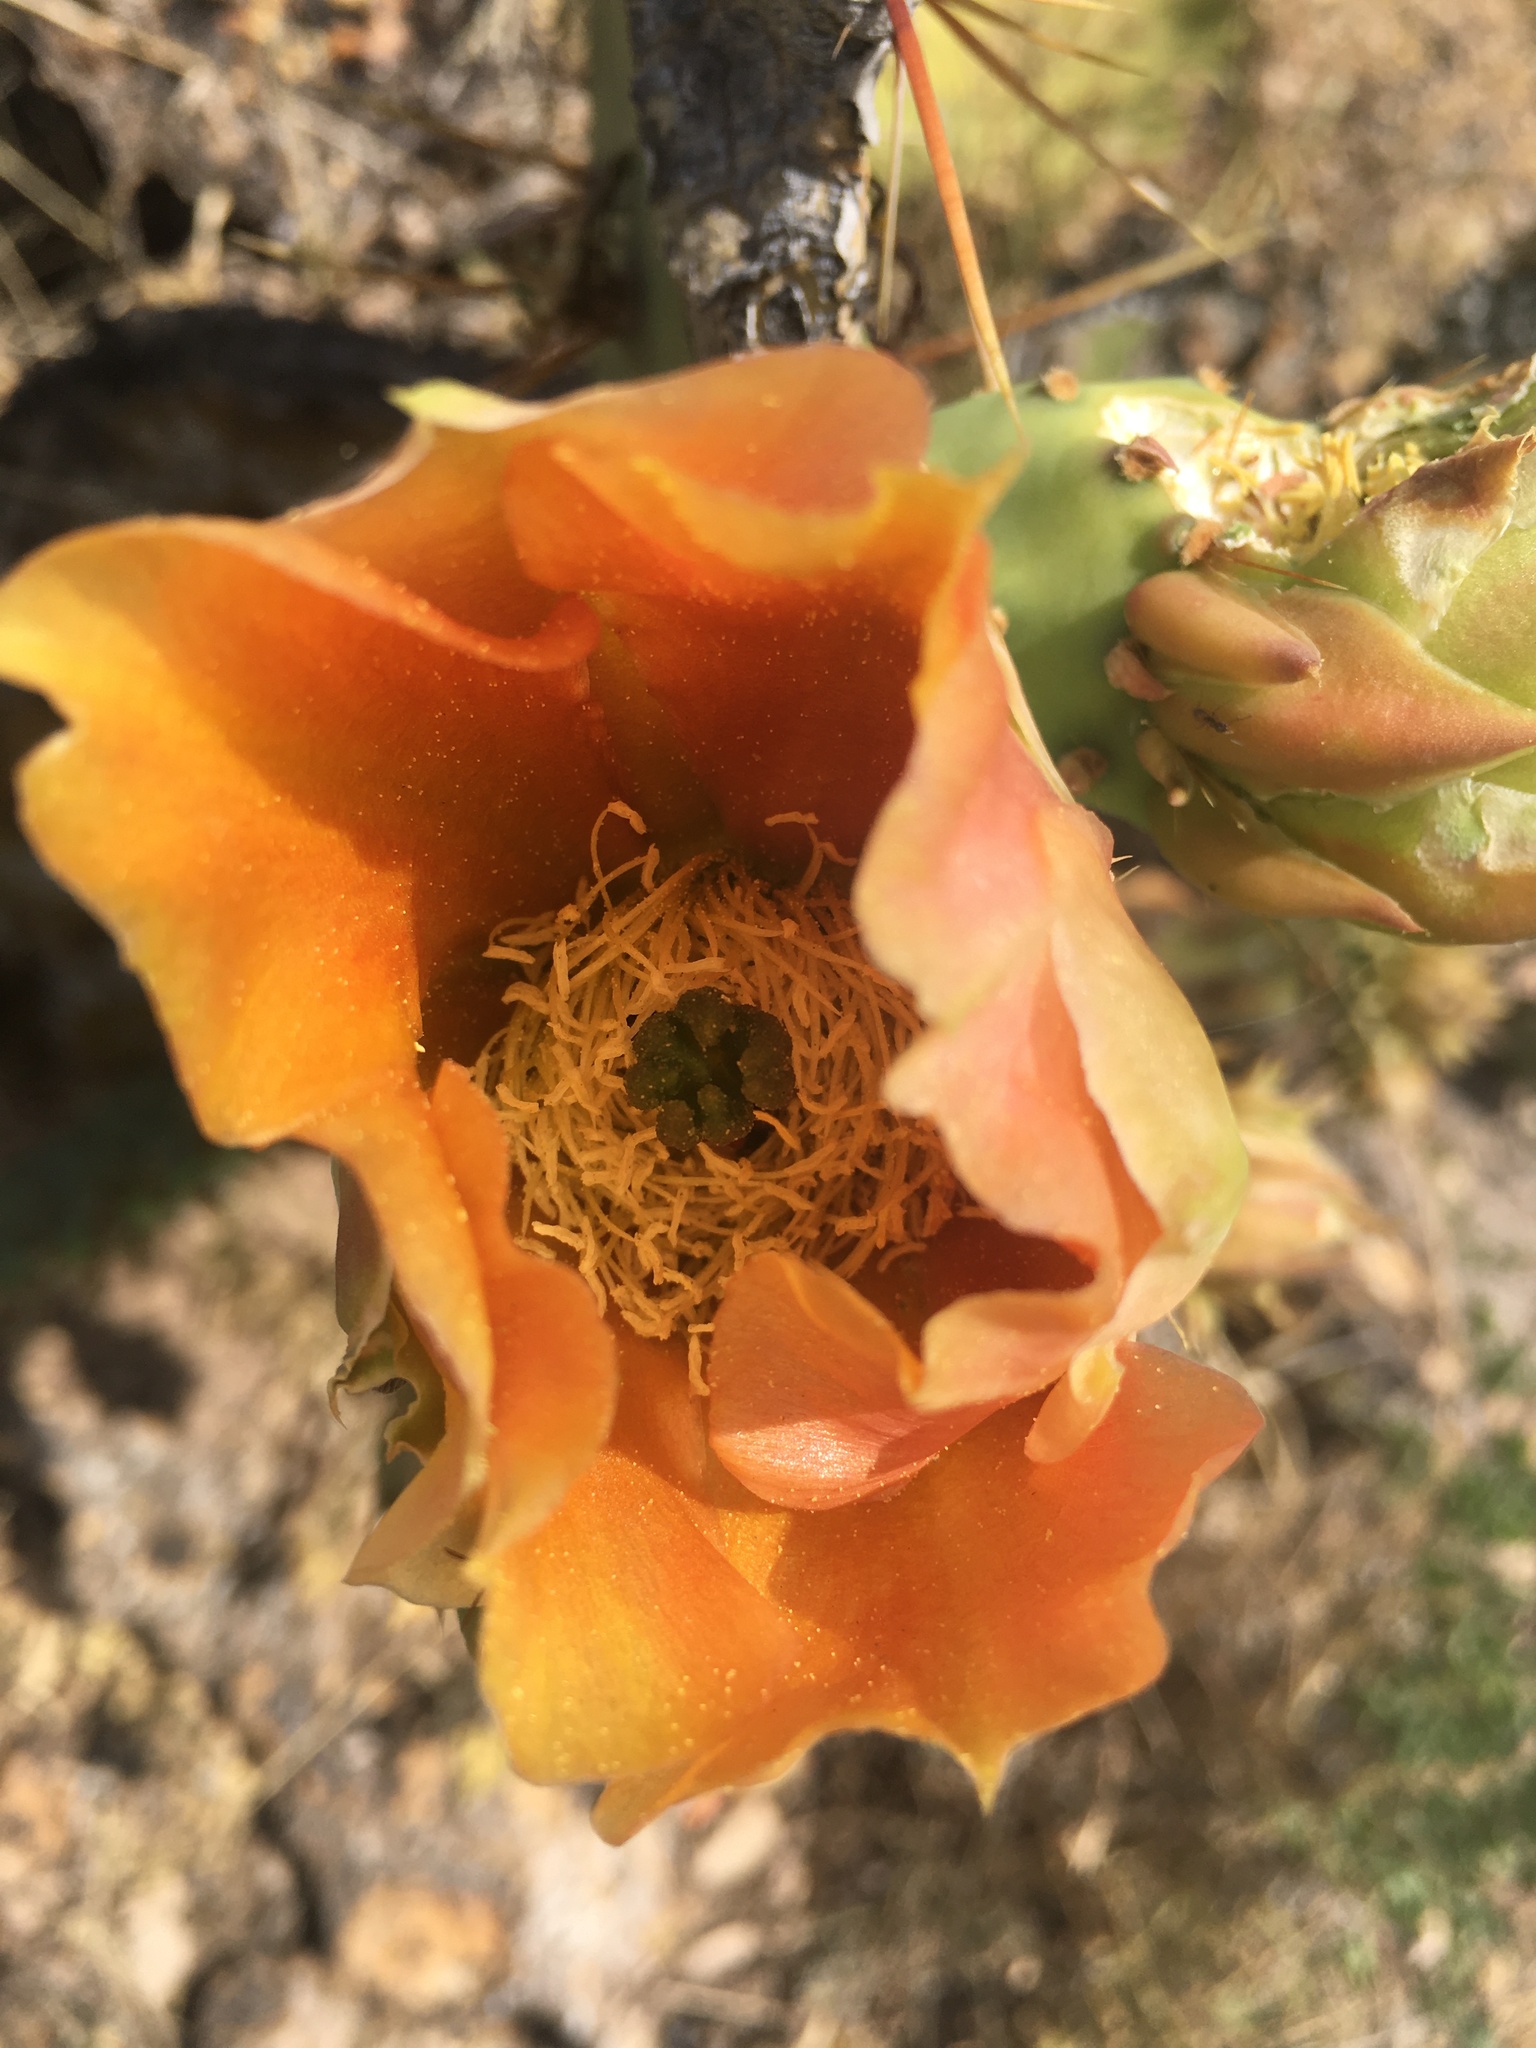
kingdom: Plantae
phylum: Tracheophyta
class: Magnoliopsida
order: Caryophyllales
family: Cactaceae
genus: Opuntia
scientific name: Opuntia orbiculata
